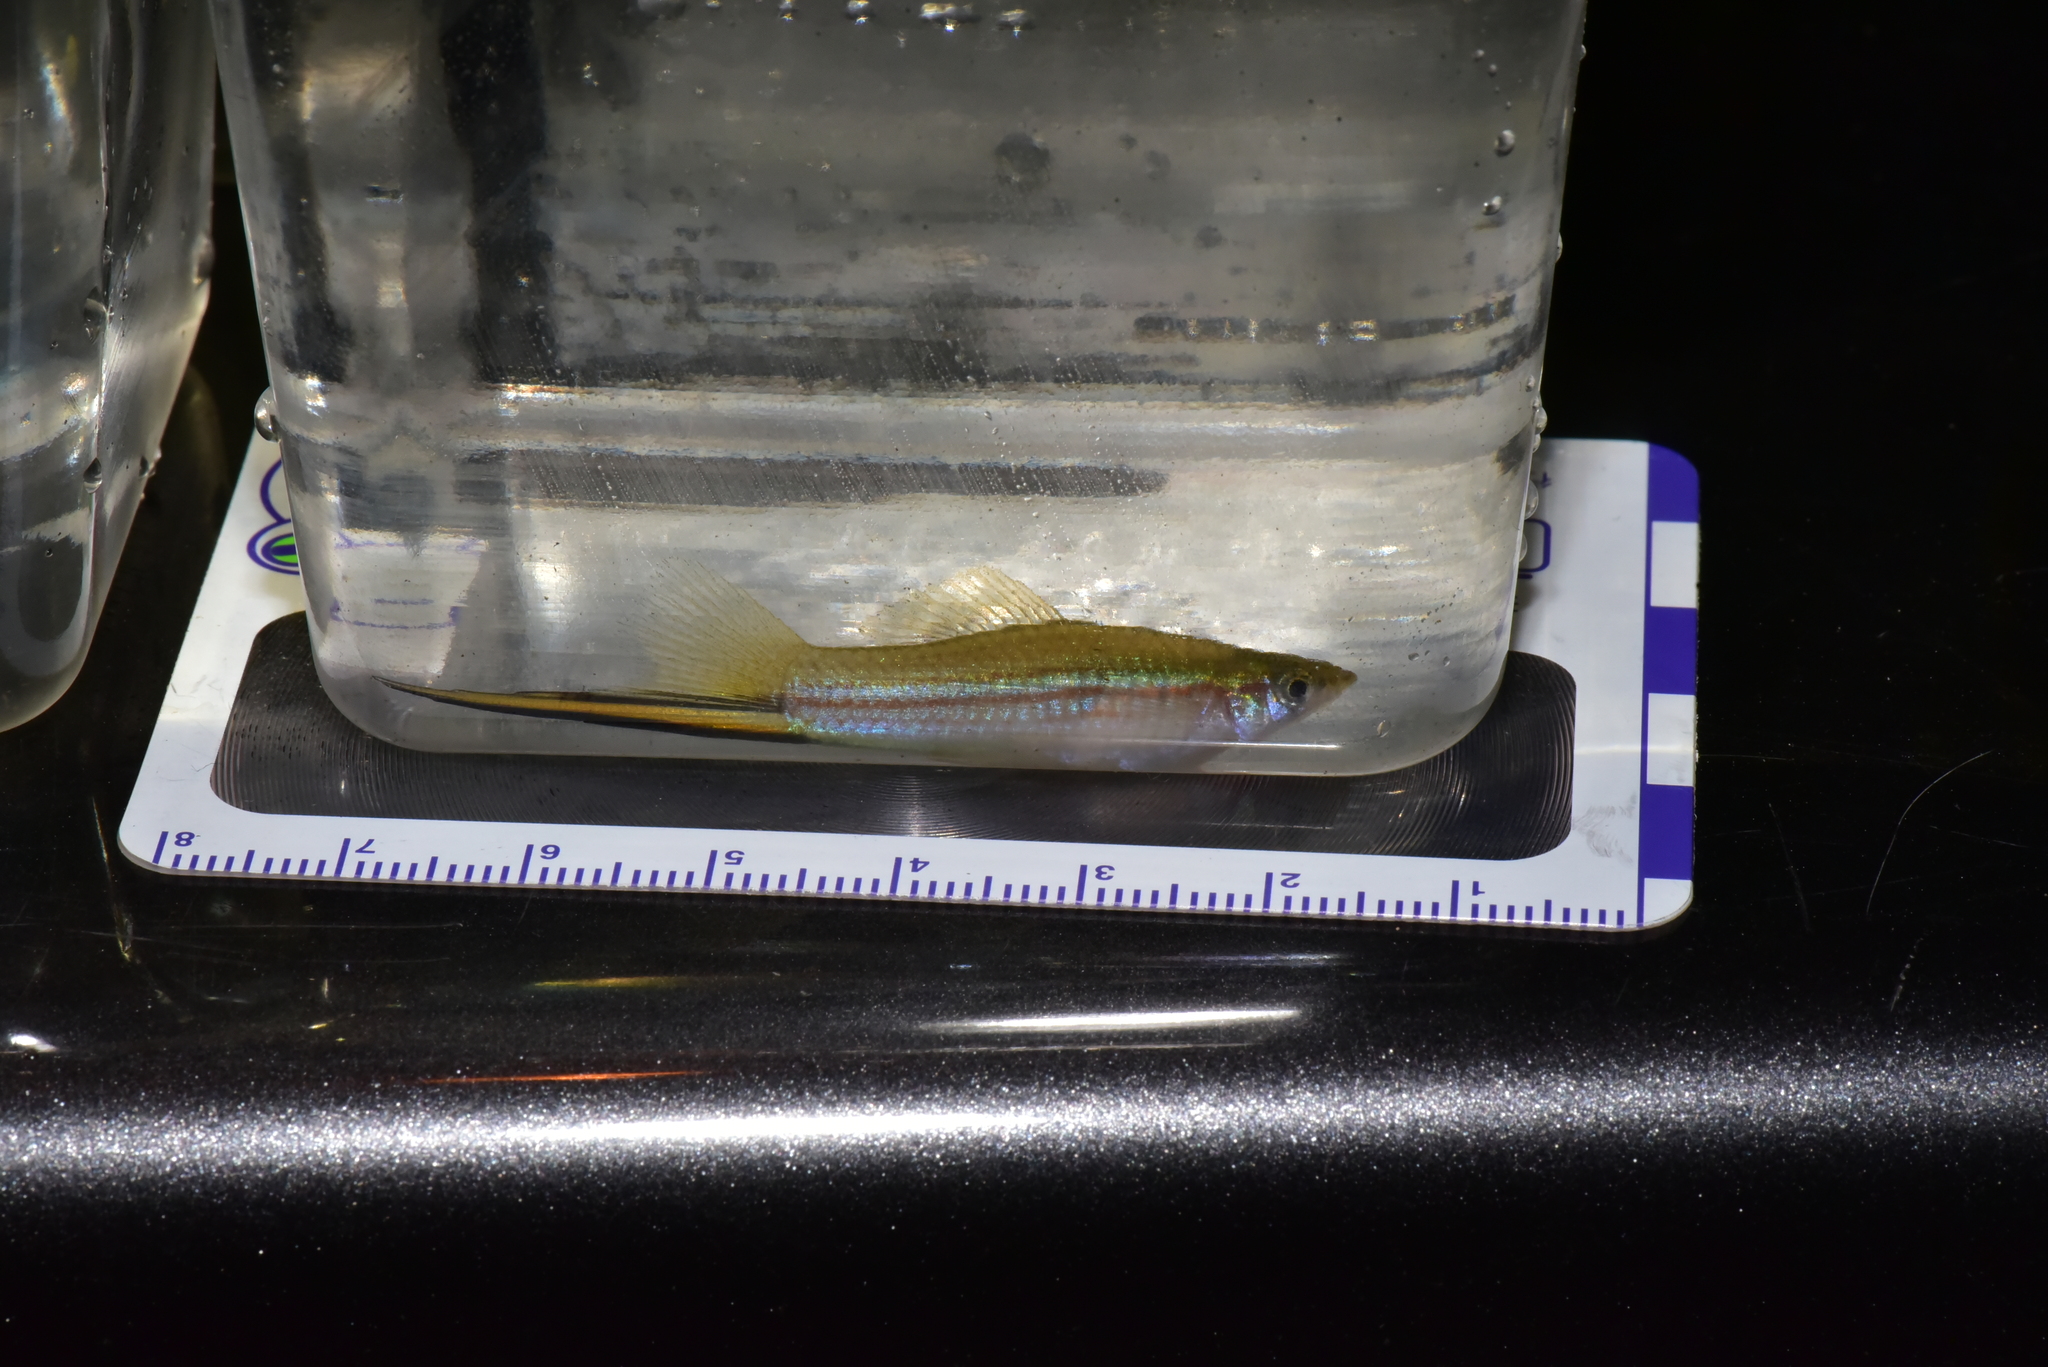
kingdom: Animalia
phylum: Chordata
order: Cyprinodontiformes
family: Poeciliidae
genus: Xiphophorus
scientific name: Xiphophorus hellerii
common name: Green swordtail
